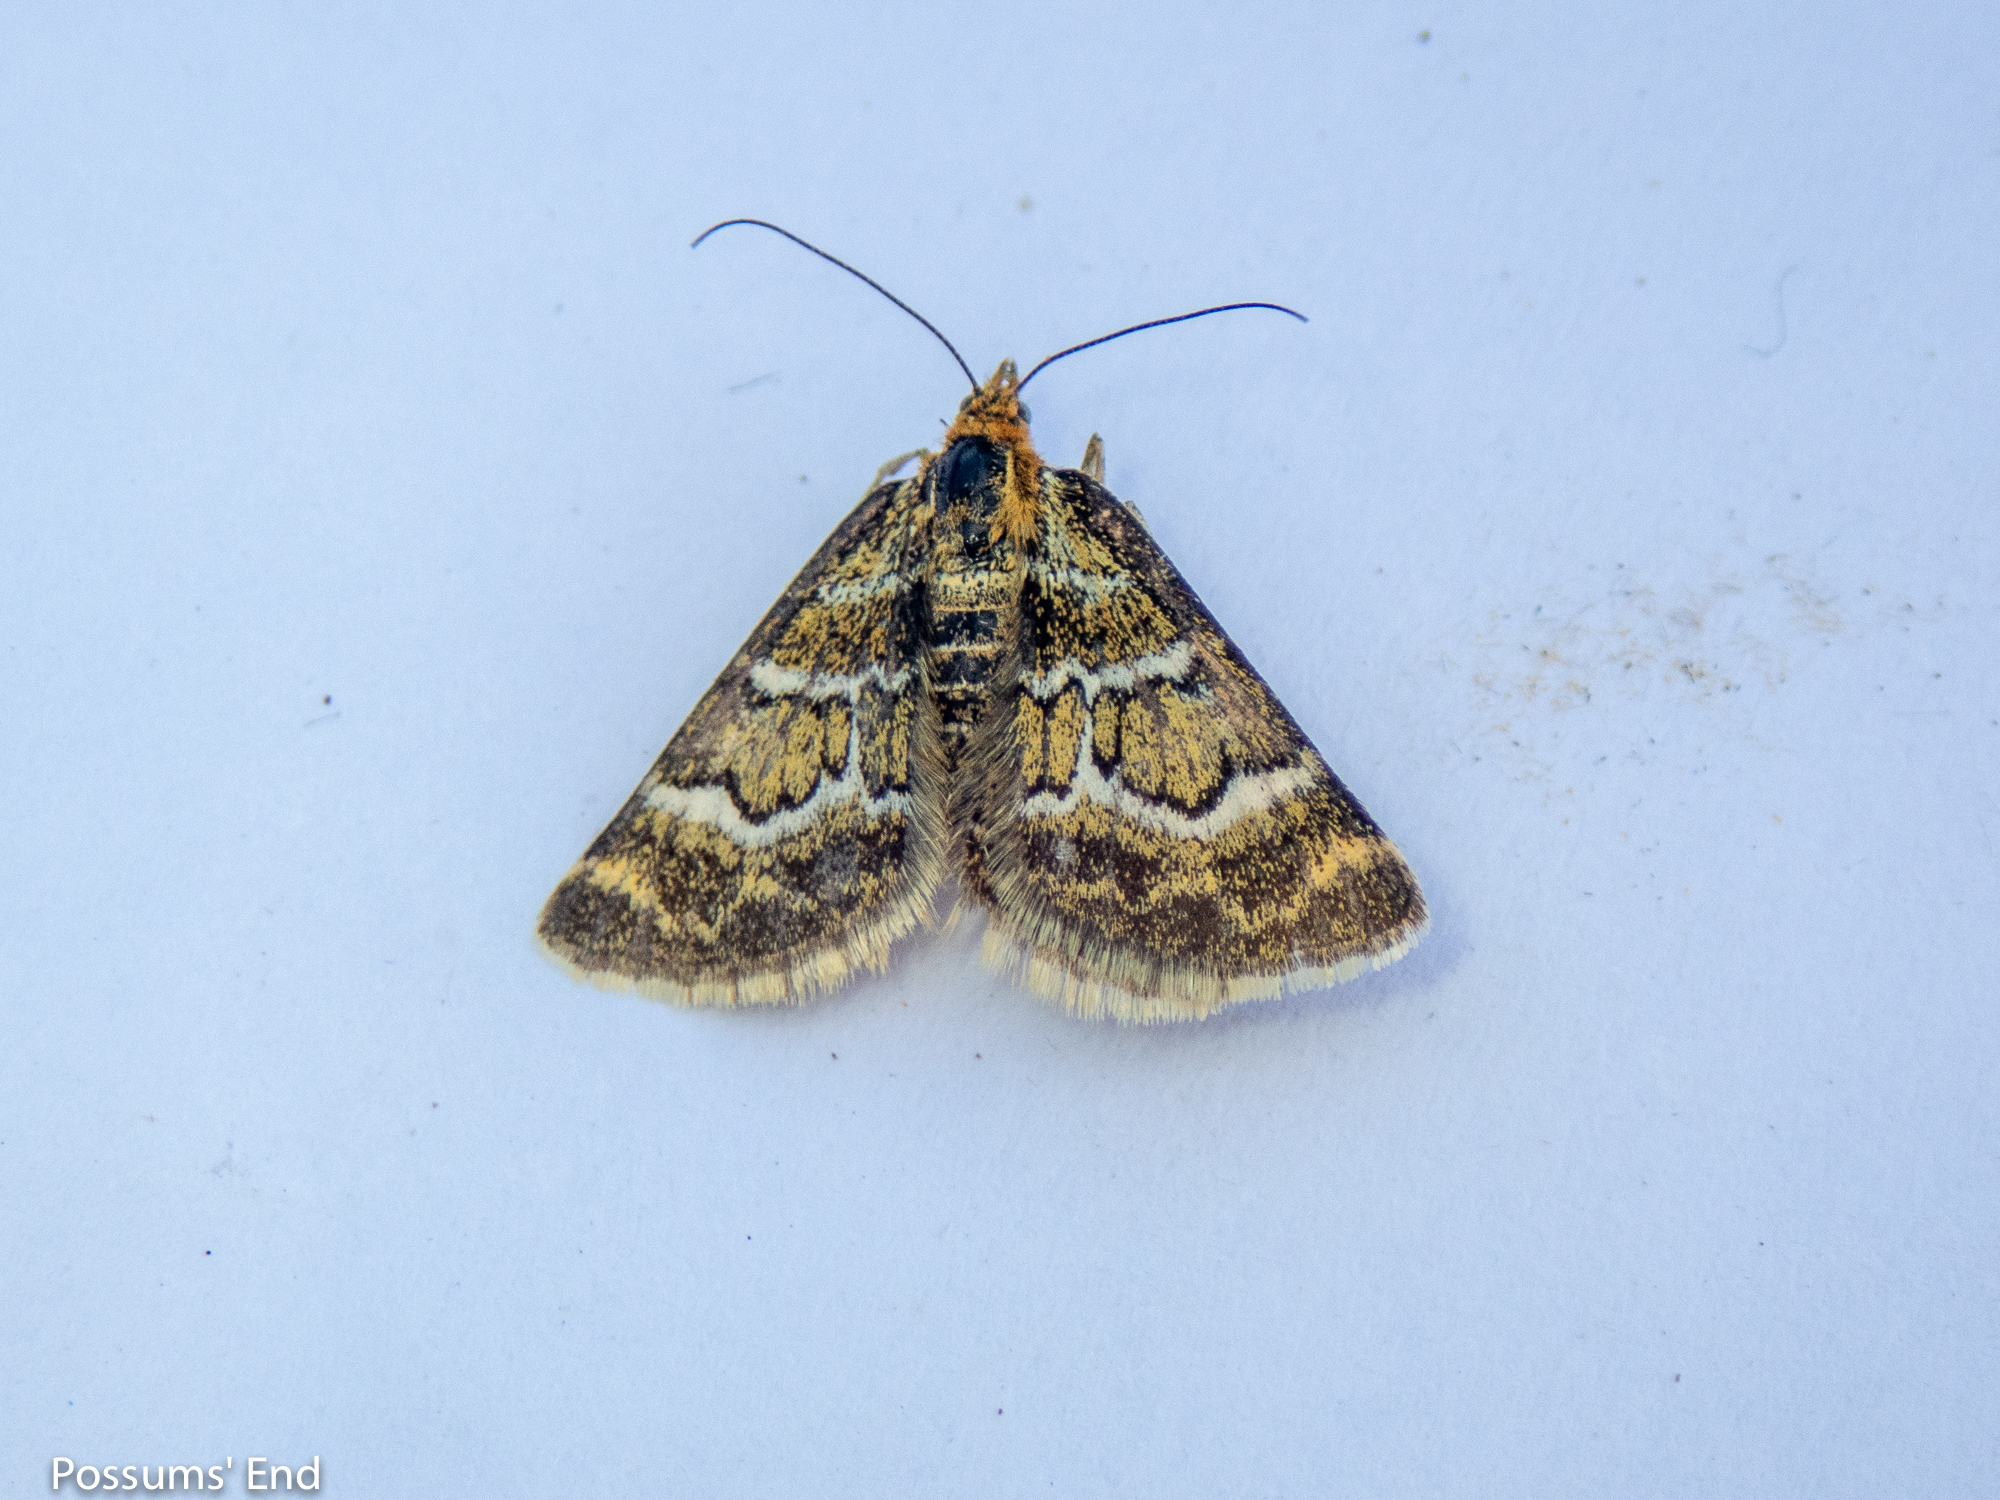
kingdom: Animalia
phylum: Arthropoda
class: Insecta
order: Lepidoptera
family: Geometridae
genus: Notoreas
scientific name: Notoreas paradelpha
